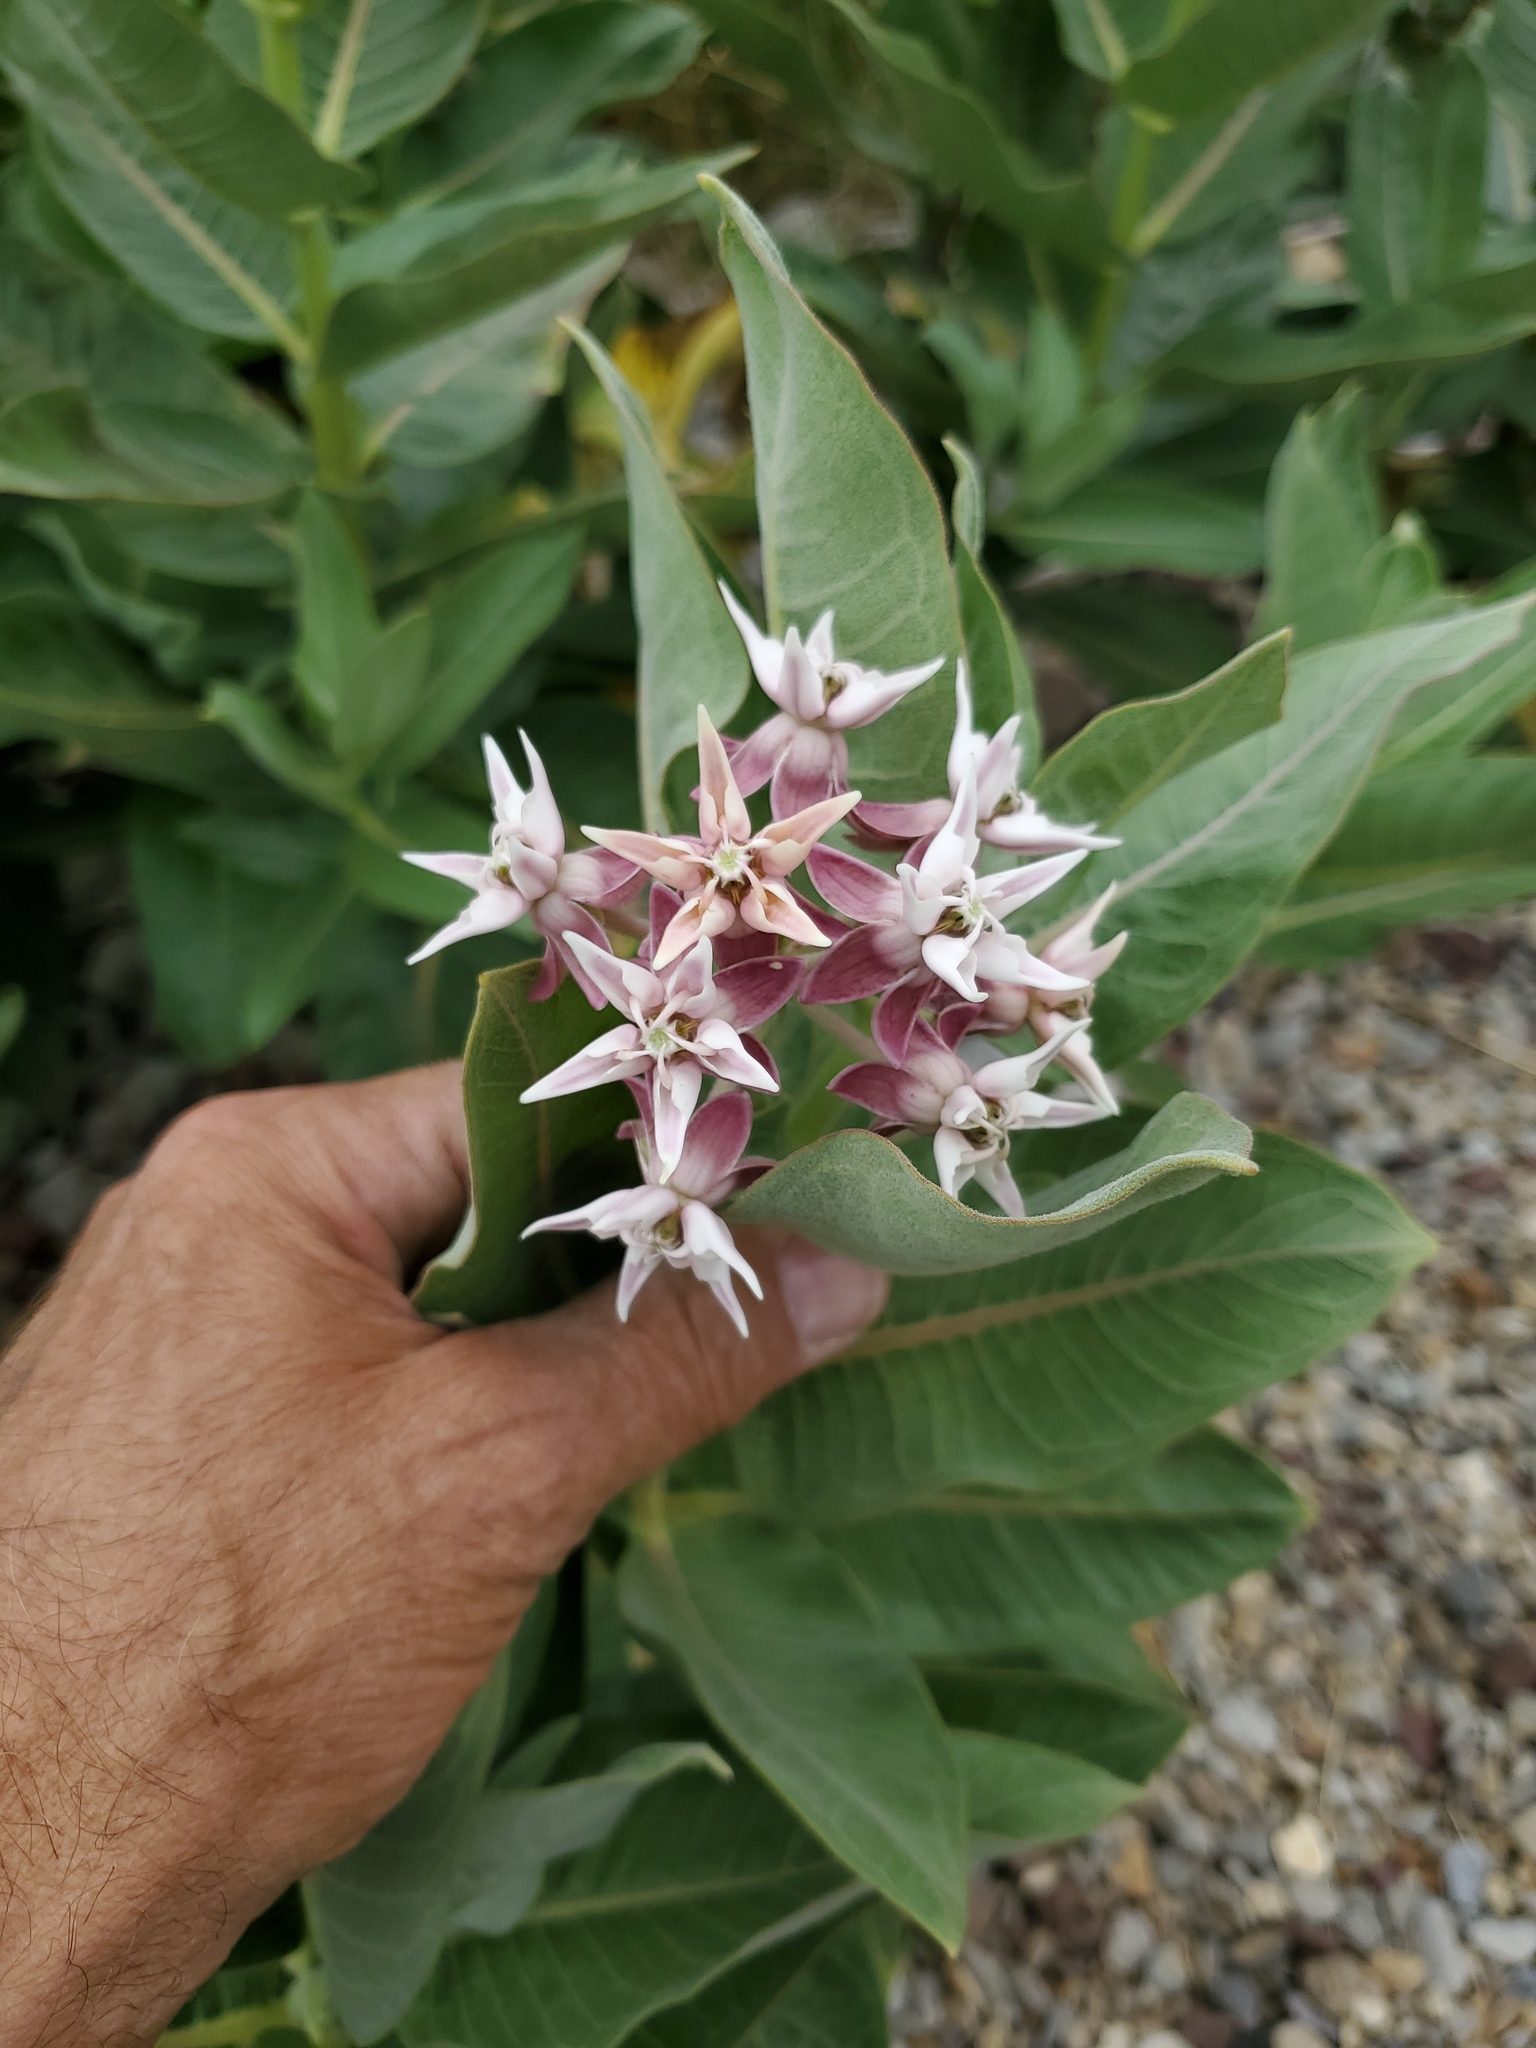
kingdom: Plantae
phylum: Tracheophyta
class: Magnoliopsida
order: Gentianales
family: Apocynaceae
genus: Asclepias
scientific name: Asclepias speciosa
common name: Showy milkweed
